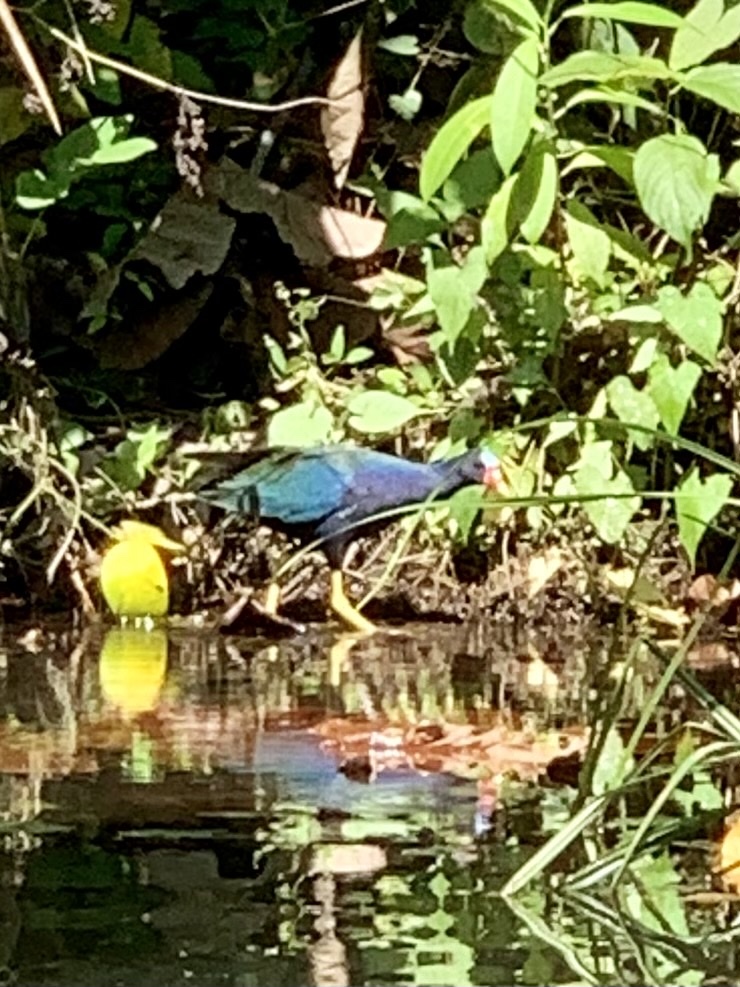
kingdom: Animalia
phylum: Chordata
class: Aves
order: Gruiformes
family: Rallidae
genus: Porphyrio
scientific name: Porphyrio martinica
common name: Purple gallinule
